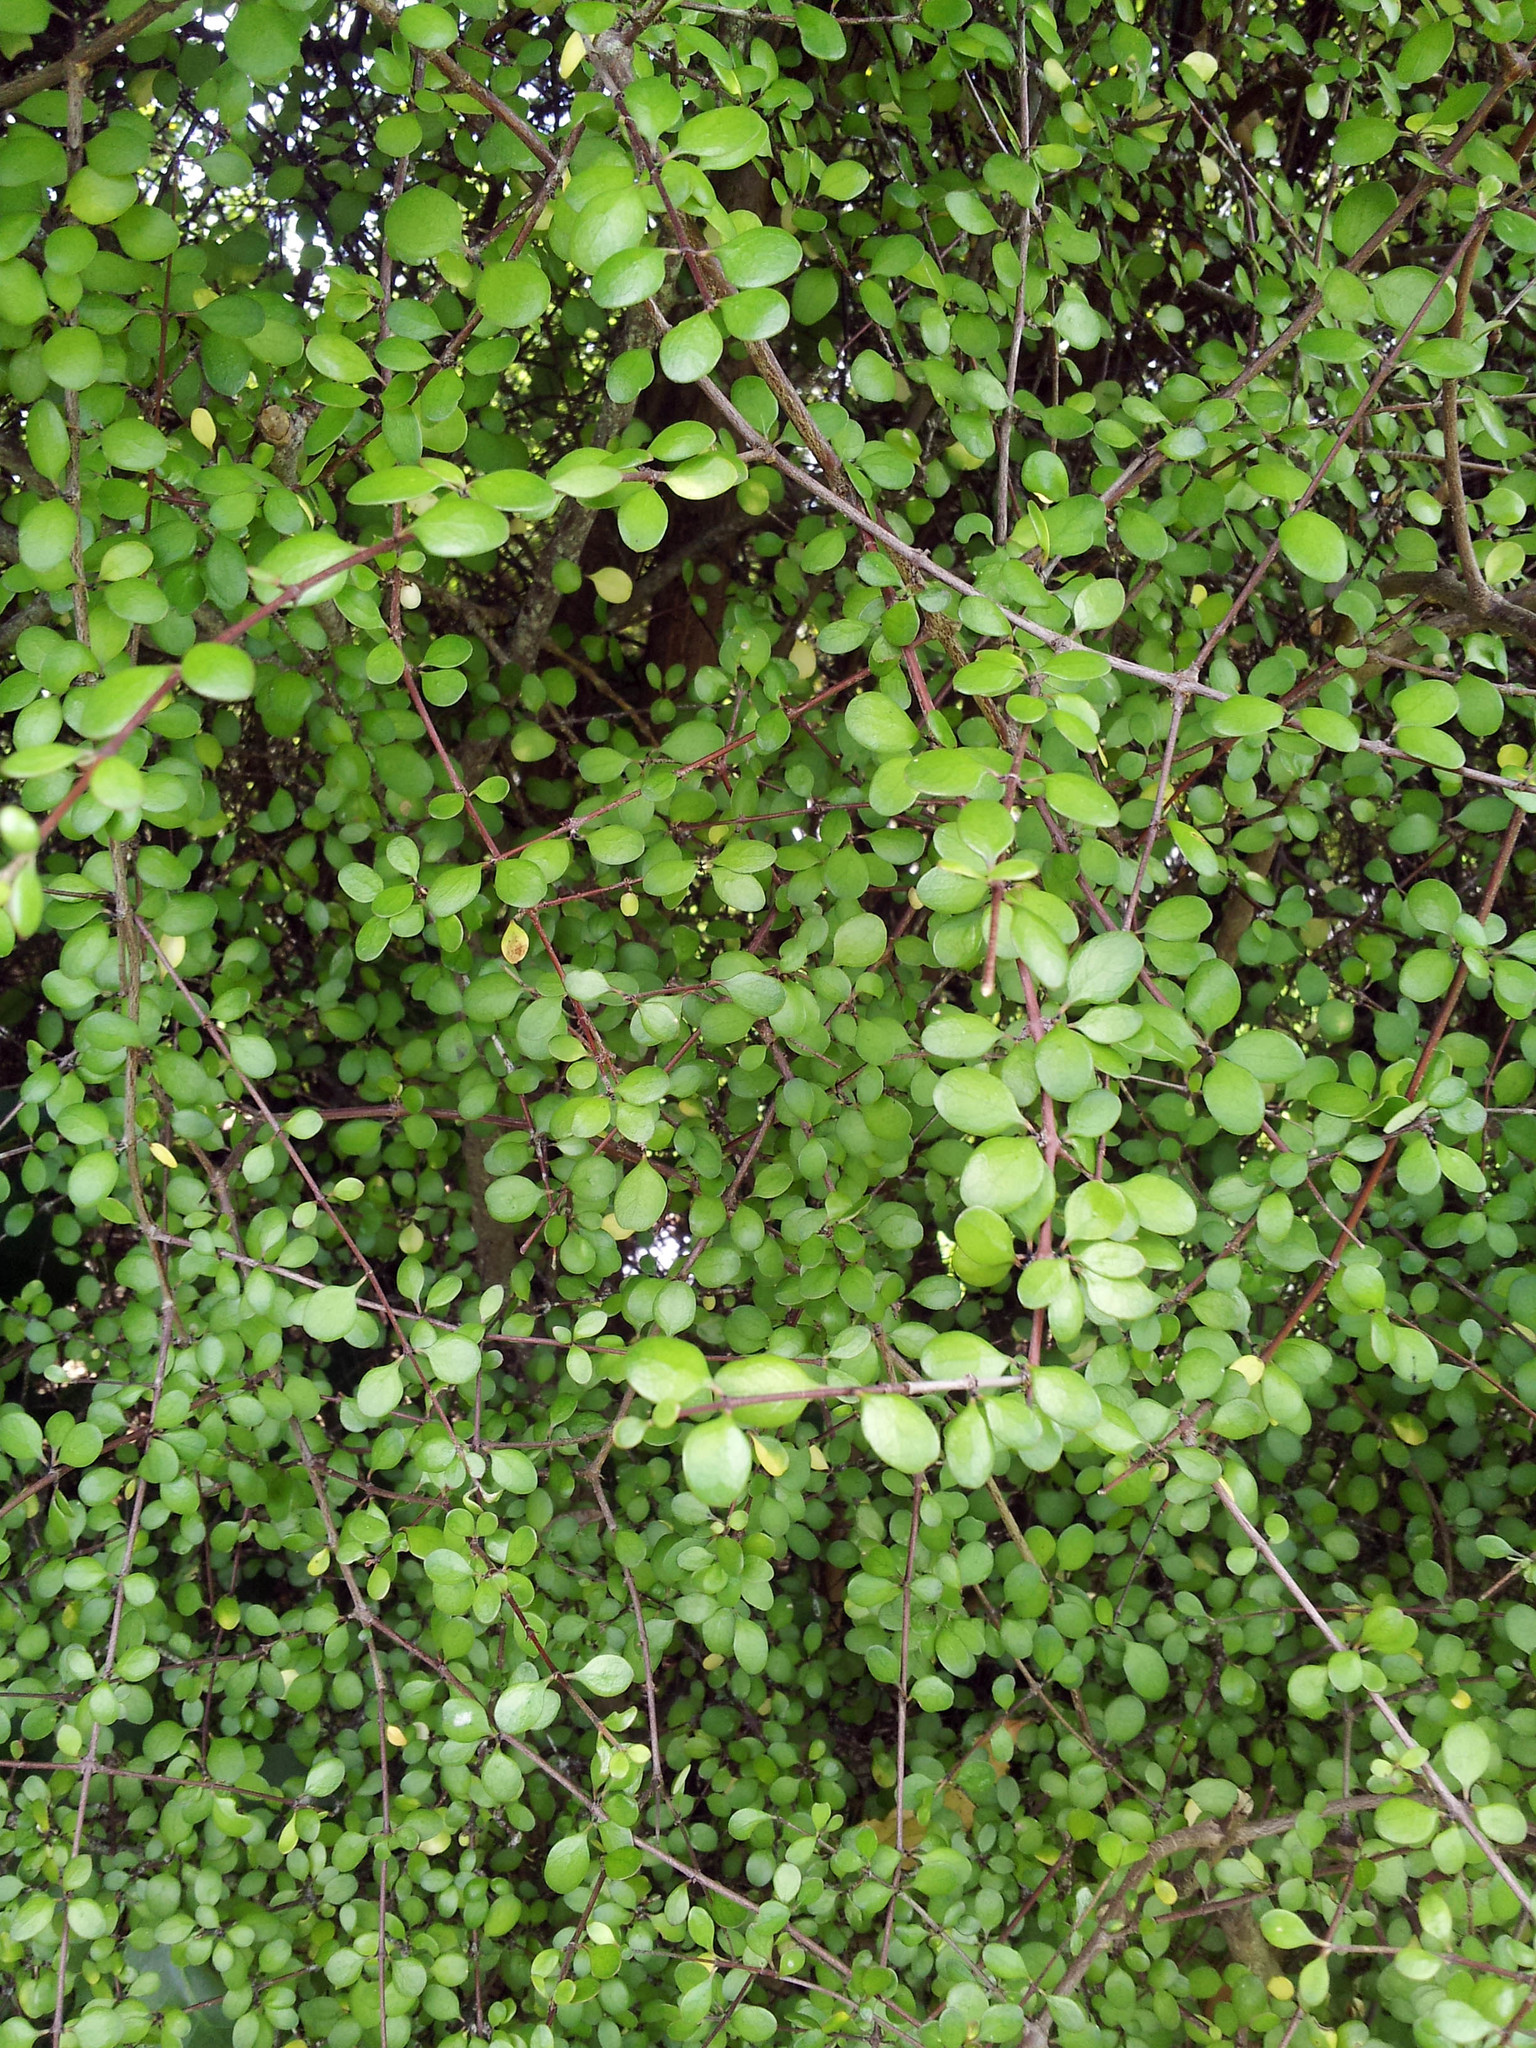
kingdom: Plantae
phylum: Tracheophyta
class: Magnoliopsida
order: Gentianales
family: Rubiaceae
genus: Coprosma
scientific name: Coprosma crassifolia
